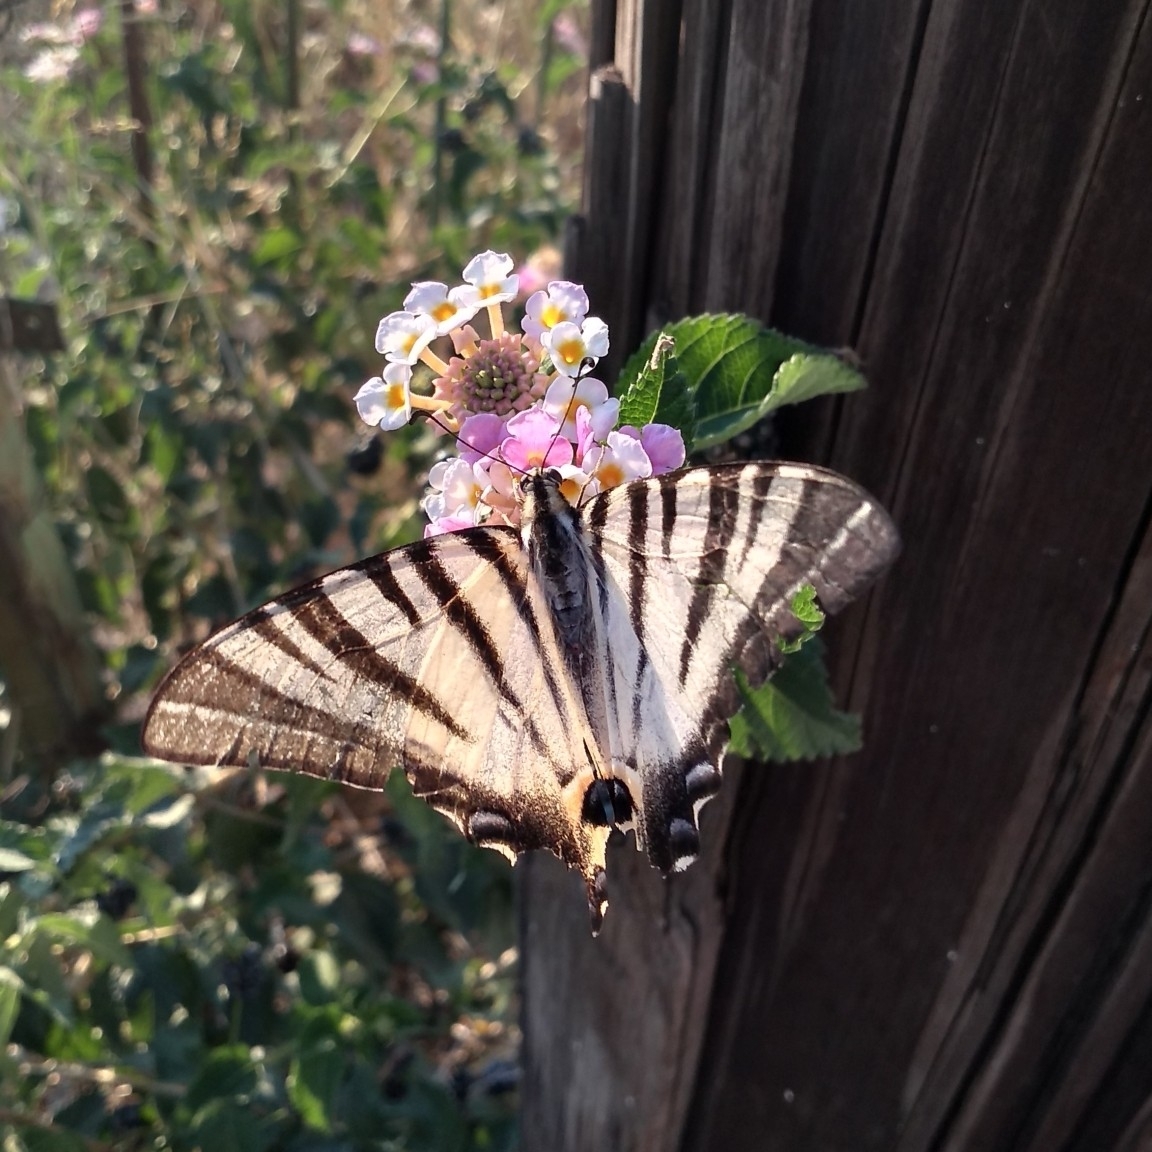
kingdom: Animalia
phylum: Arthropoda
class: Insecta
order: Lepidoptera
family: Papilionidae
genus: Iphiclides
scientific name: Iphiclides podalirius
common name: Scarce swallowtail
